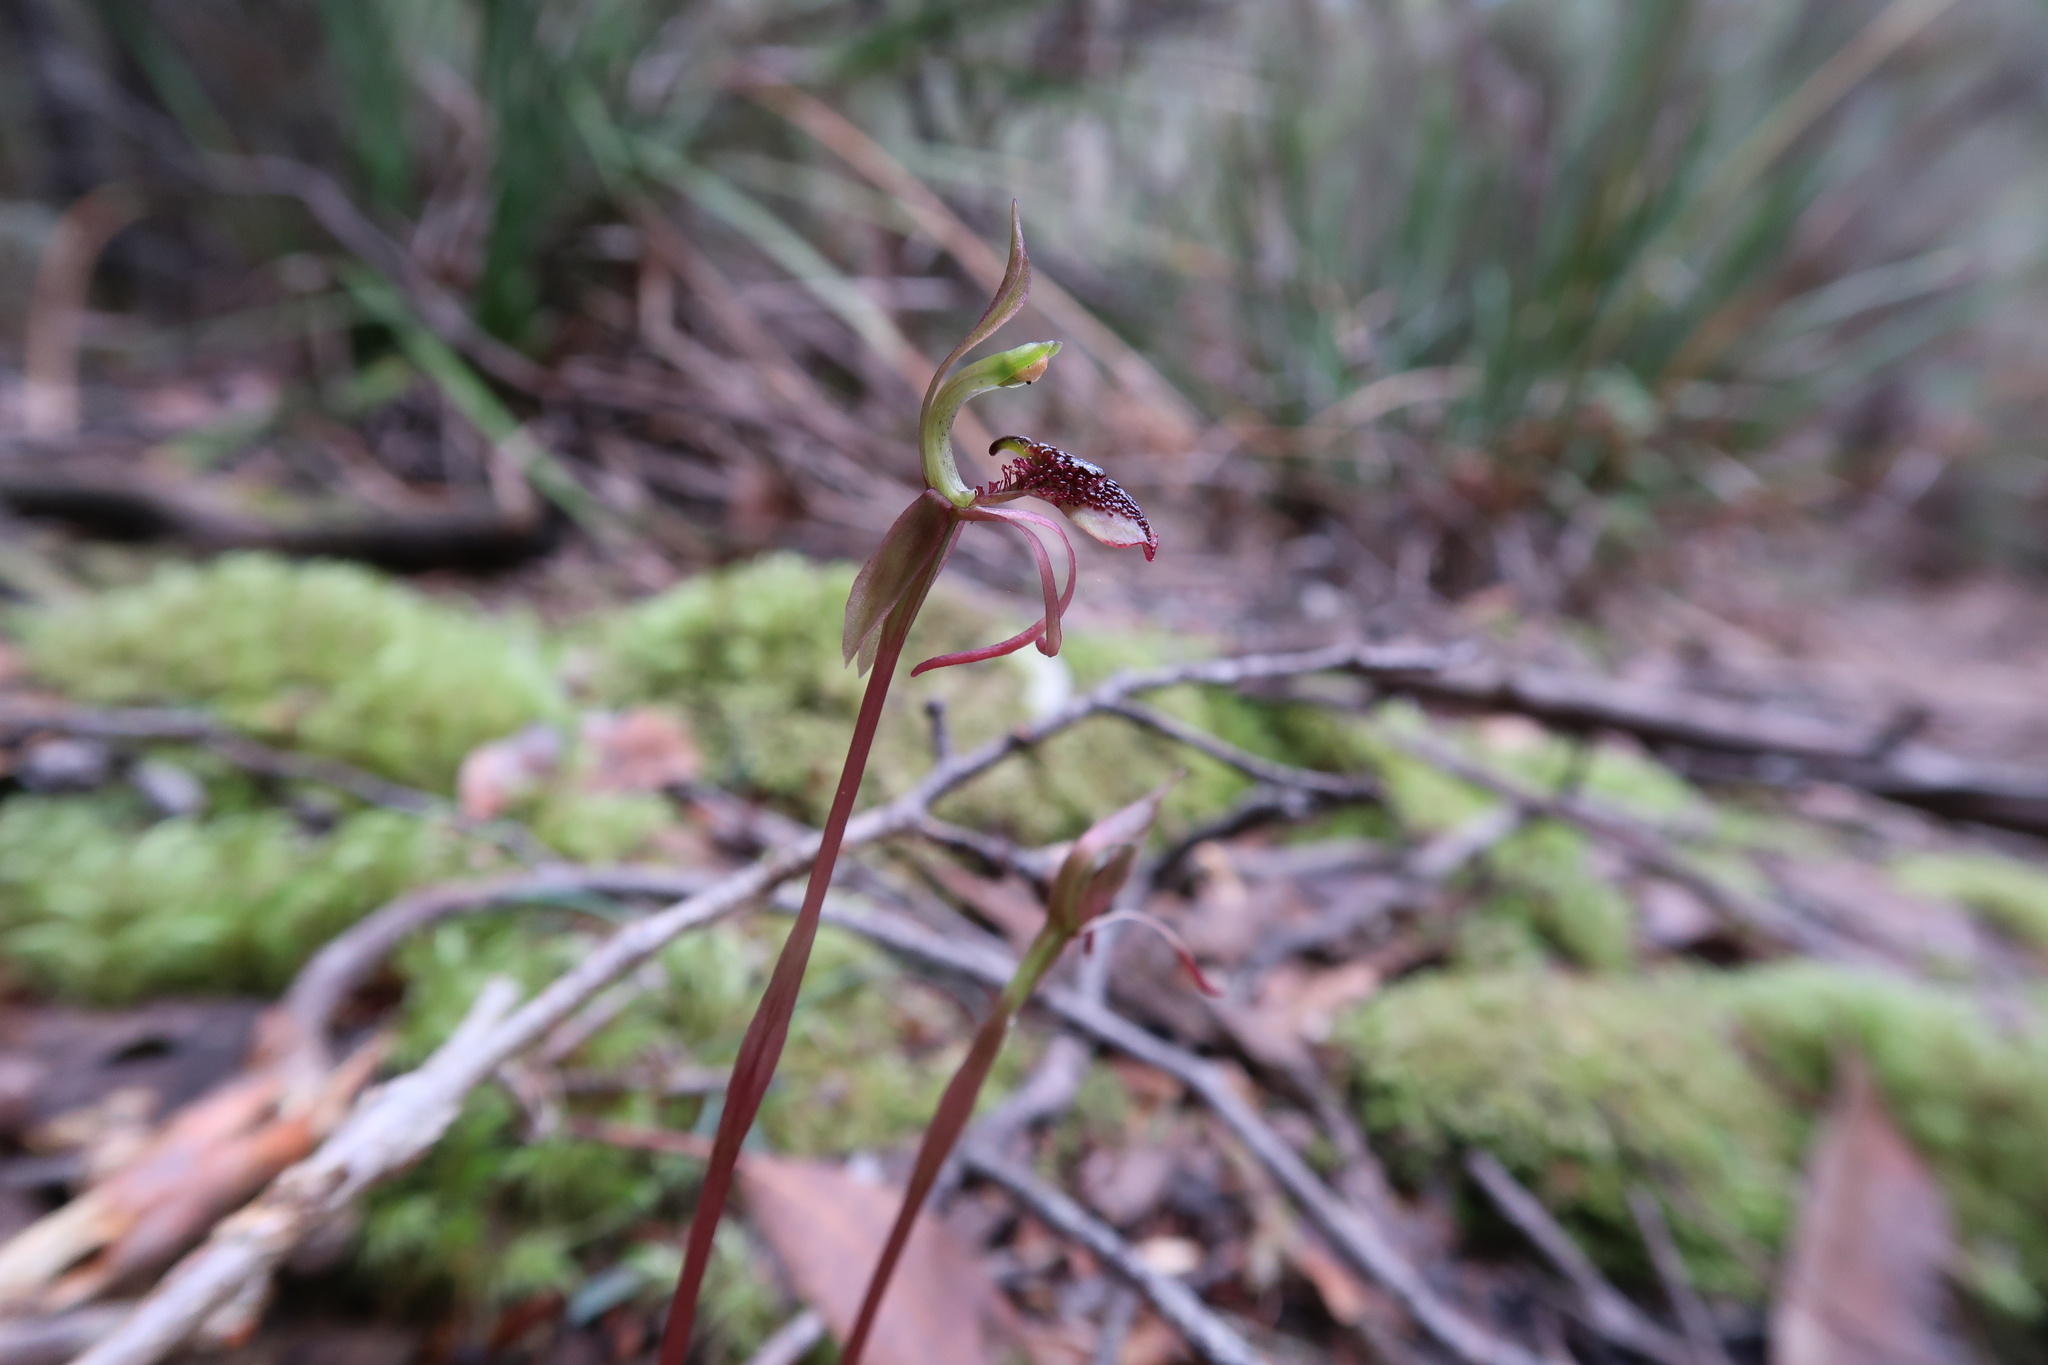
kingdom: Plantae
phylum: Tracheophyta
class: Liliopsida
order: Asparagales
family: Orchidaceae
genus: Chiloglottis
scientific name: Chiloglottis reflexa
